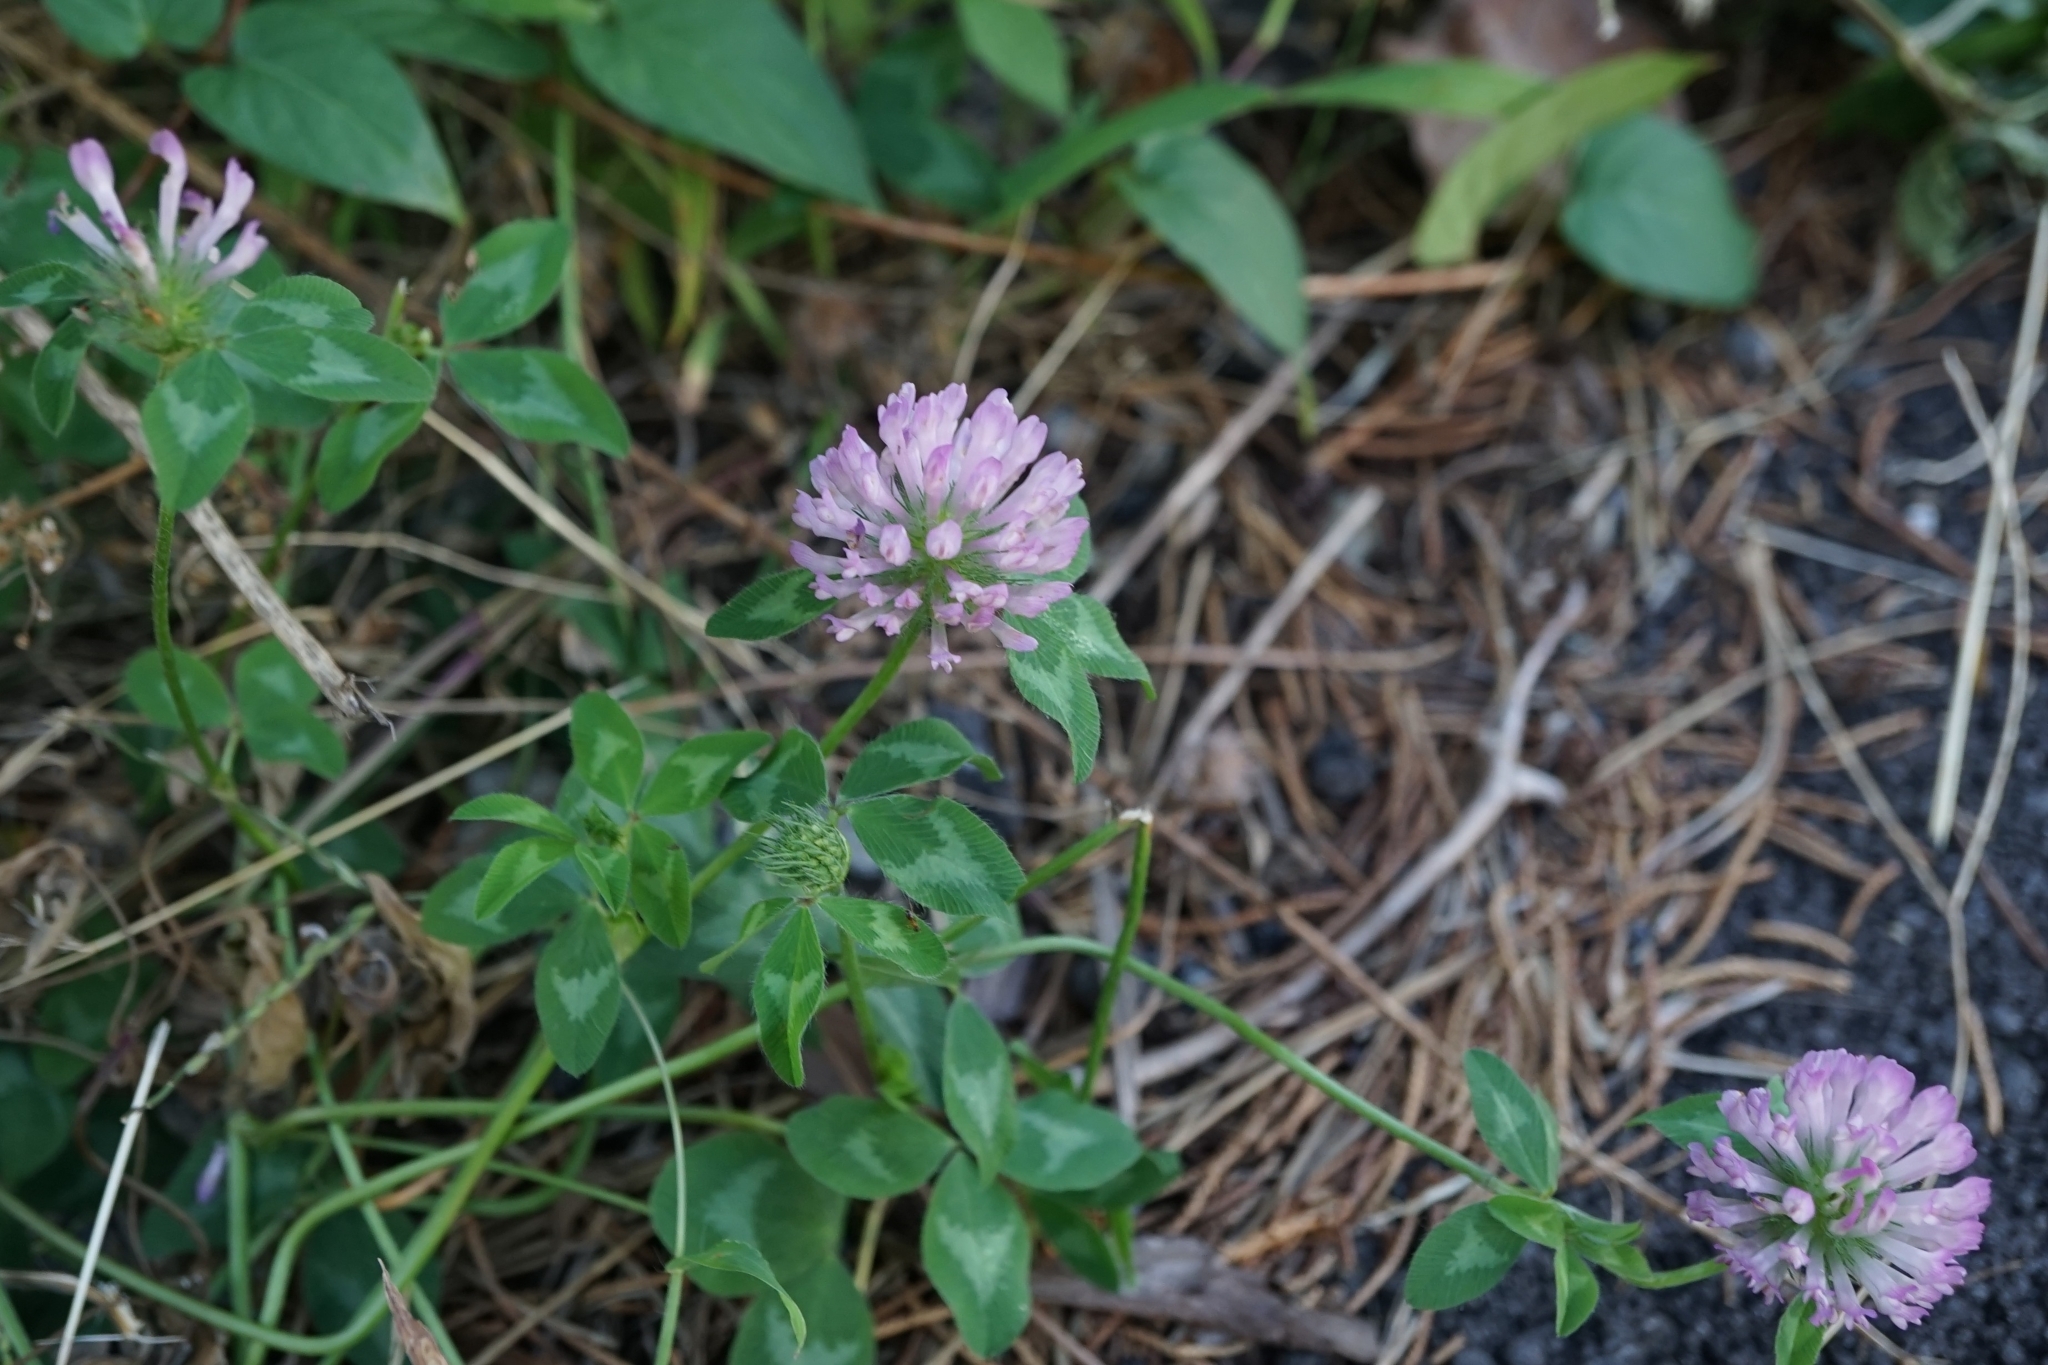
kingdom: Plantae
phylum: Tracheophyta
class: Magnoliopsida
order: Fabales
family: Fabaceae
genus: Trifolium
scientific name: Trifolium pratense
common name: Red clover
